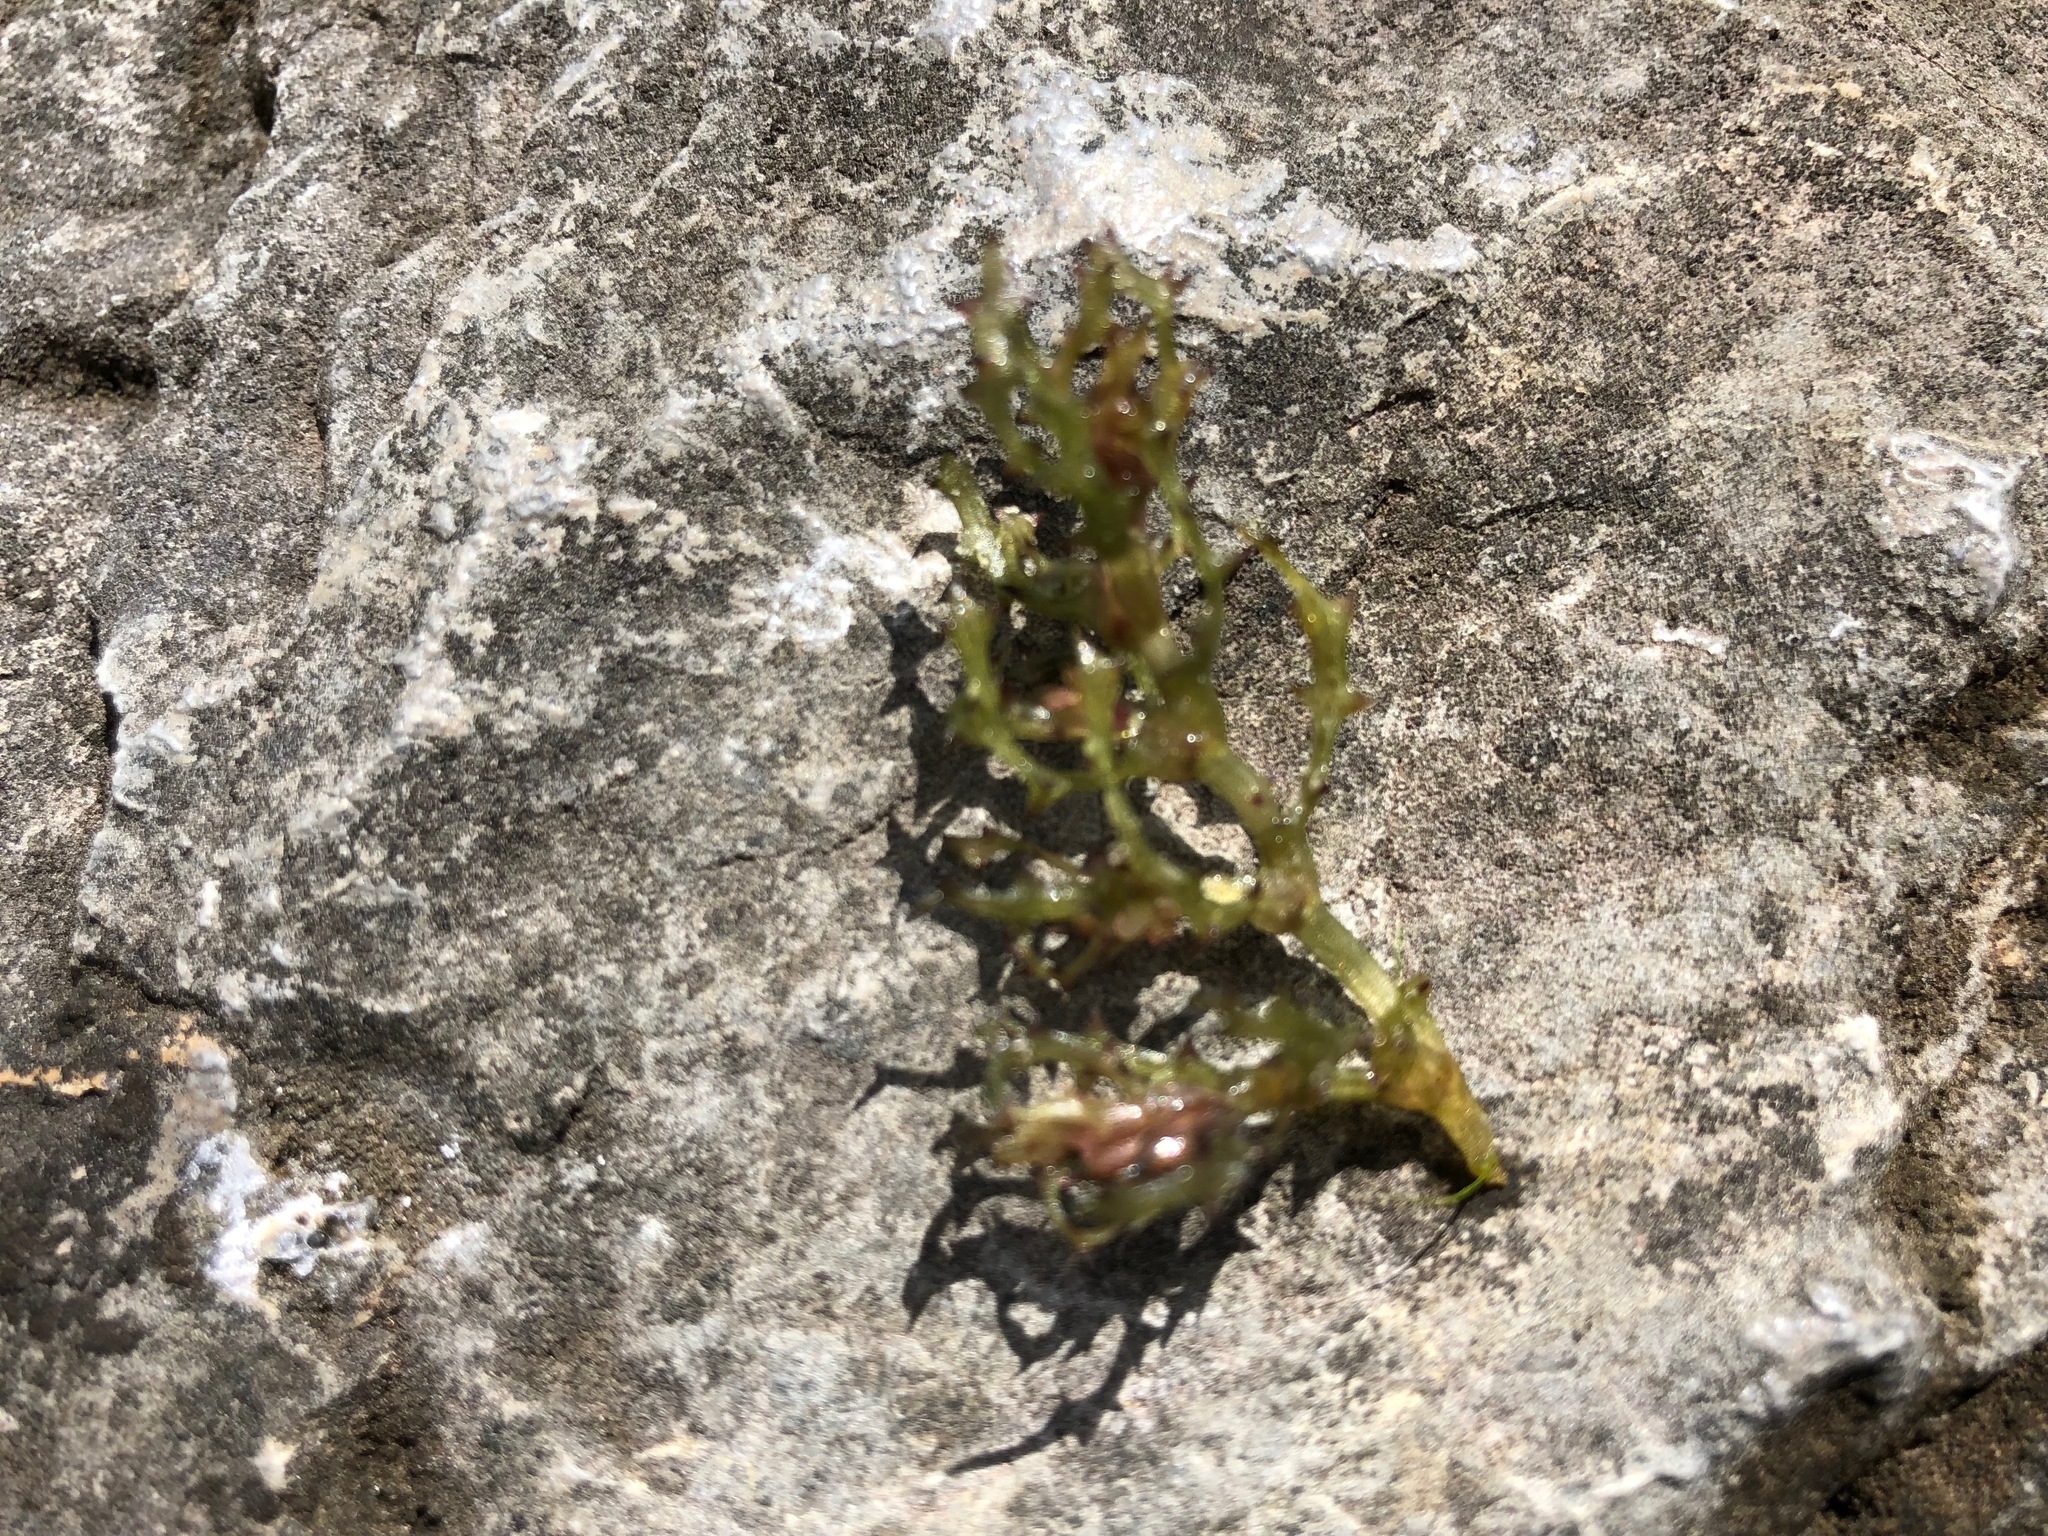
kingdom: Plantae
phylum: Tracheophyta
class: Liliopsida
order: Alismatales
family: Hydrocharitaceae
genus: Najas
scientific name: Najas marina
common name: Holly-leaved naiad
